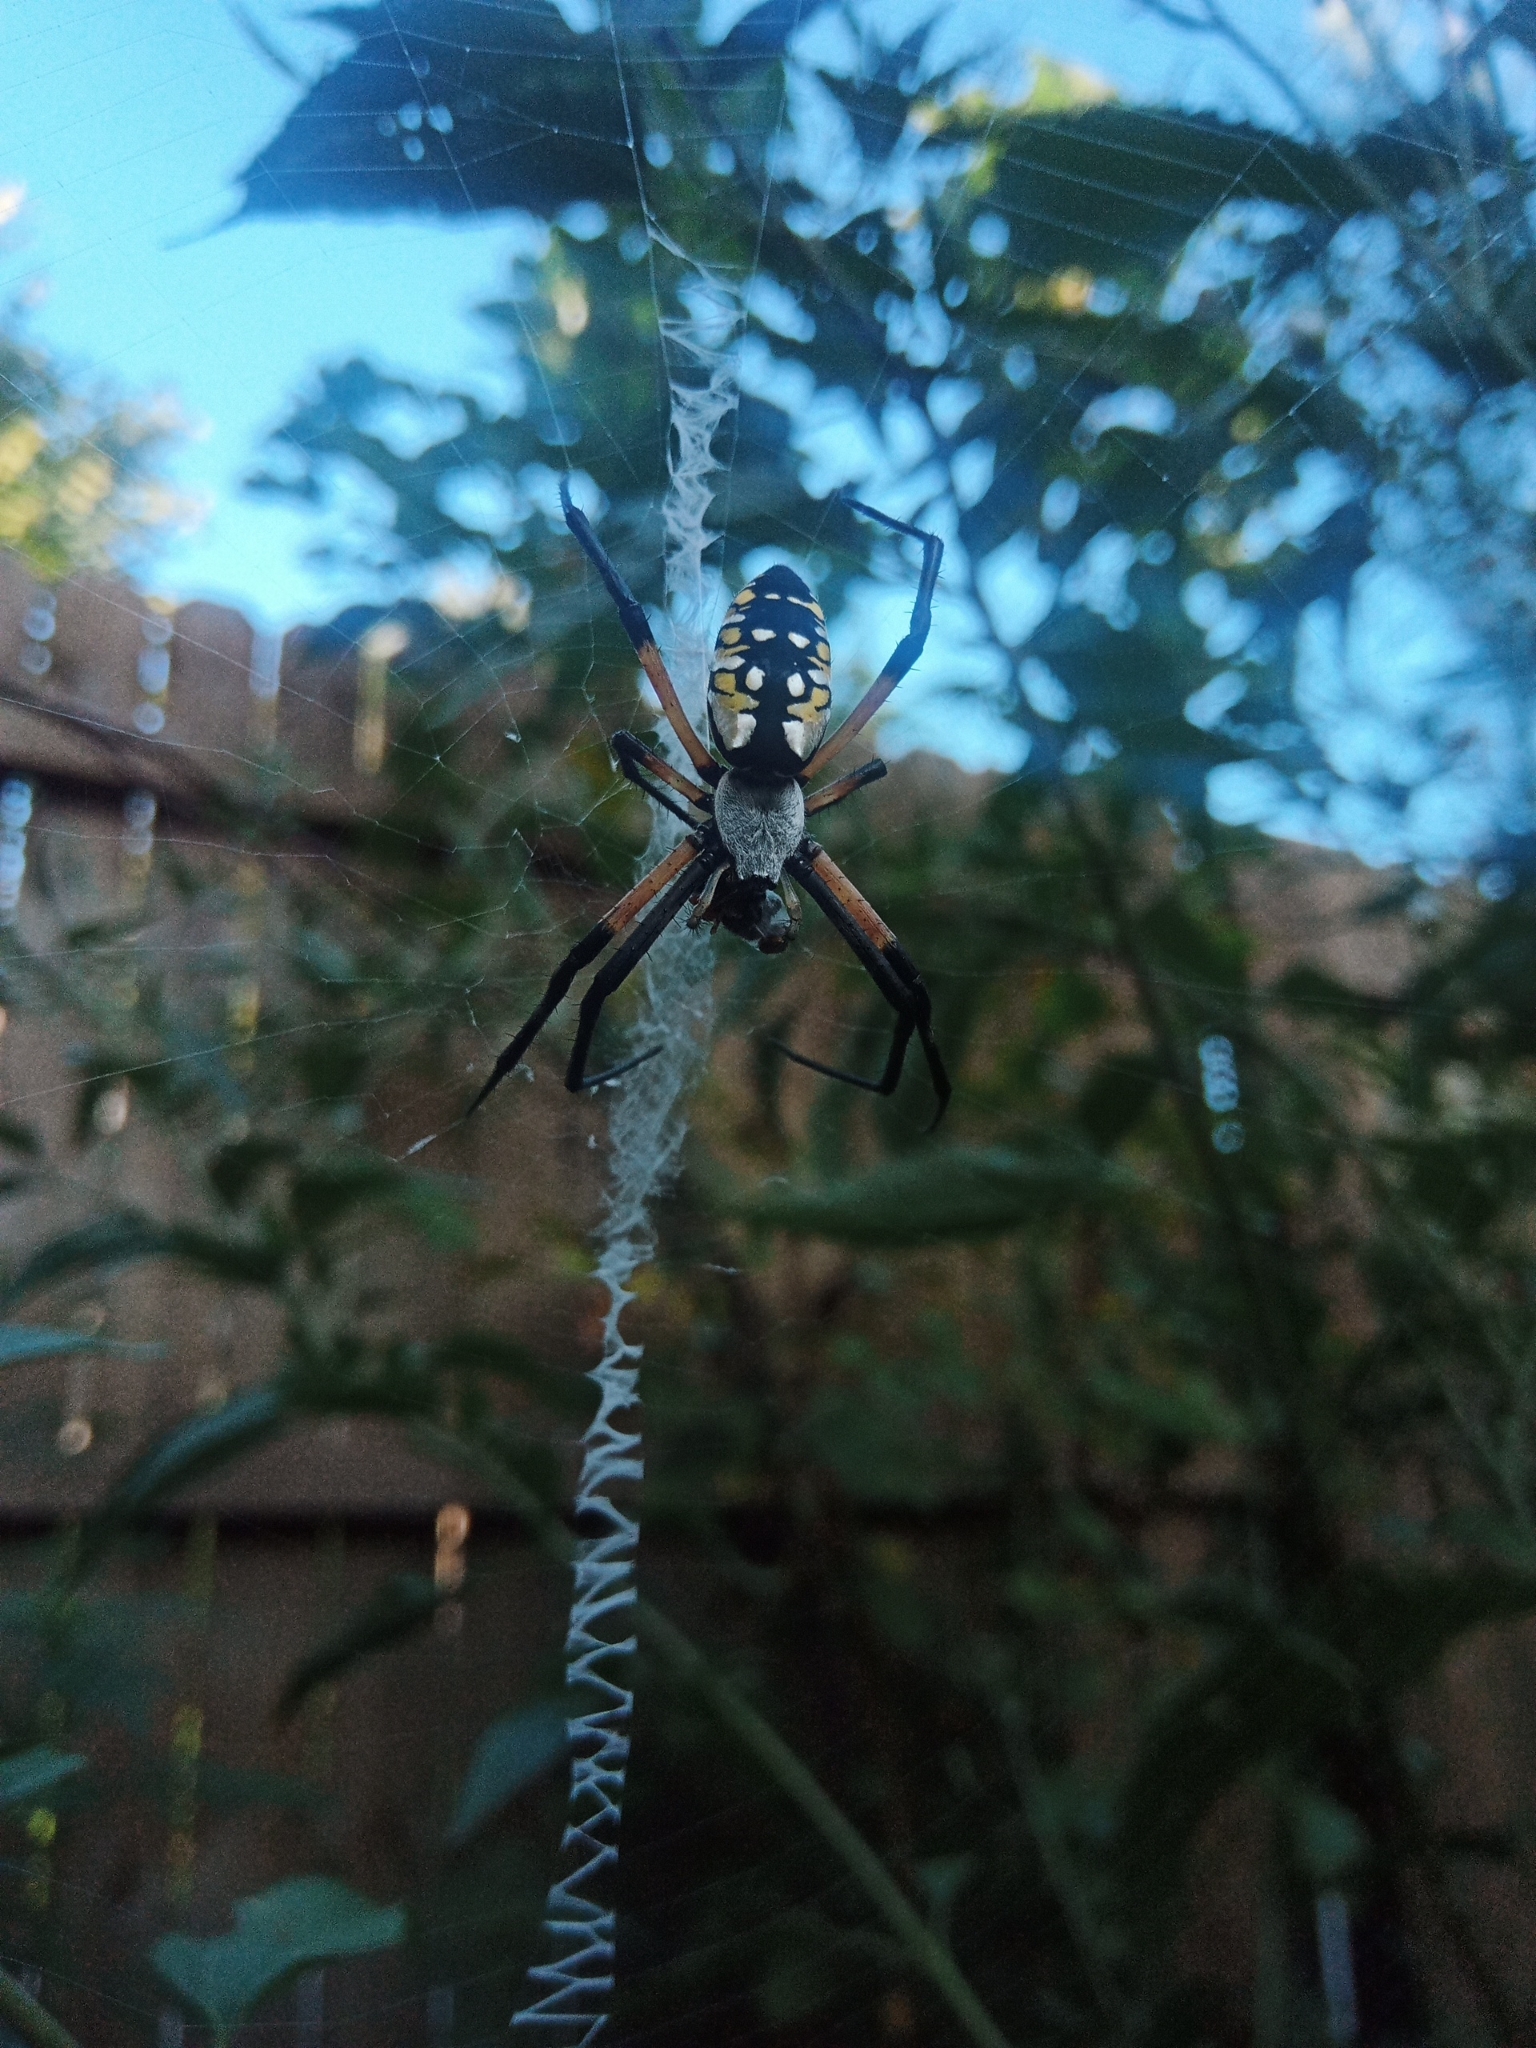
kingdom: Animalia
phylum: Arthropoda
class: Arachnida
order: Araneae
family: Araneidae
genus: Argiope
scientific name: Argiope aurantia
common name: Orb weavers
